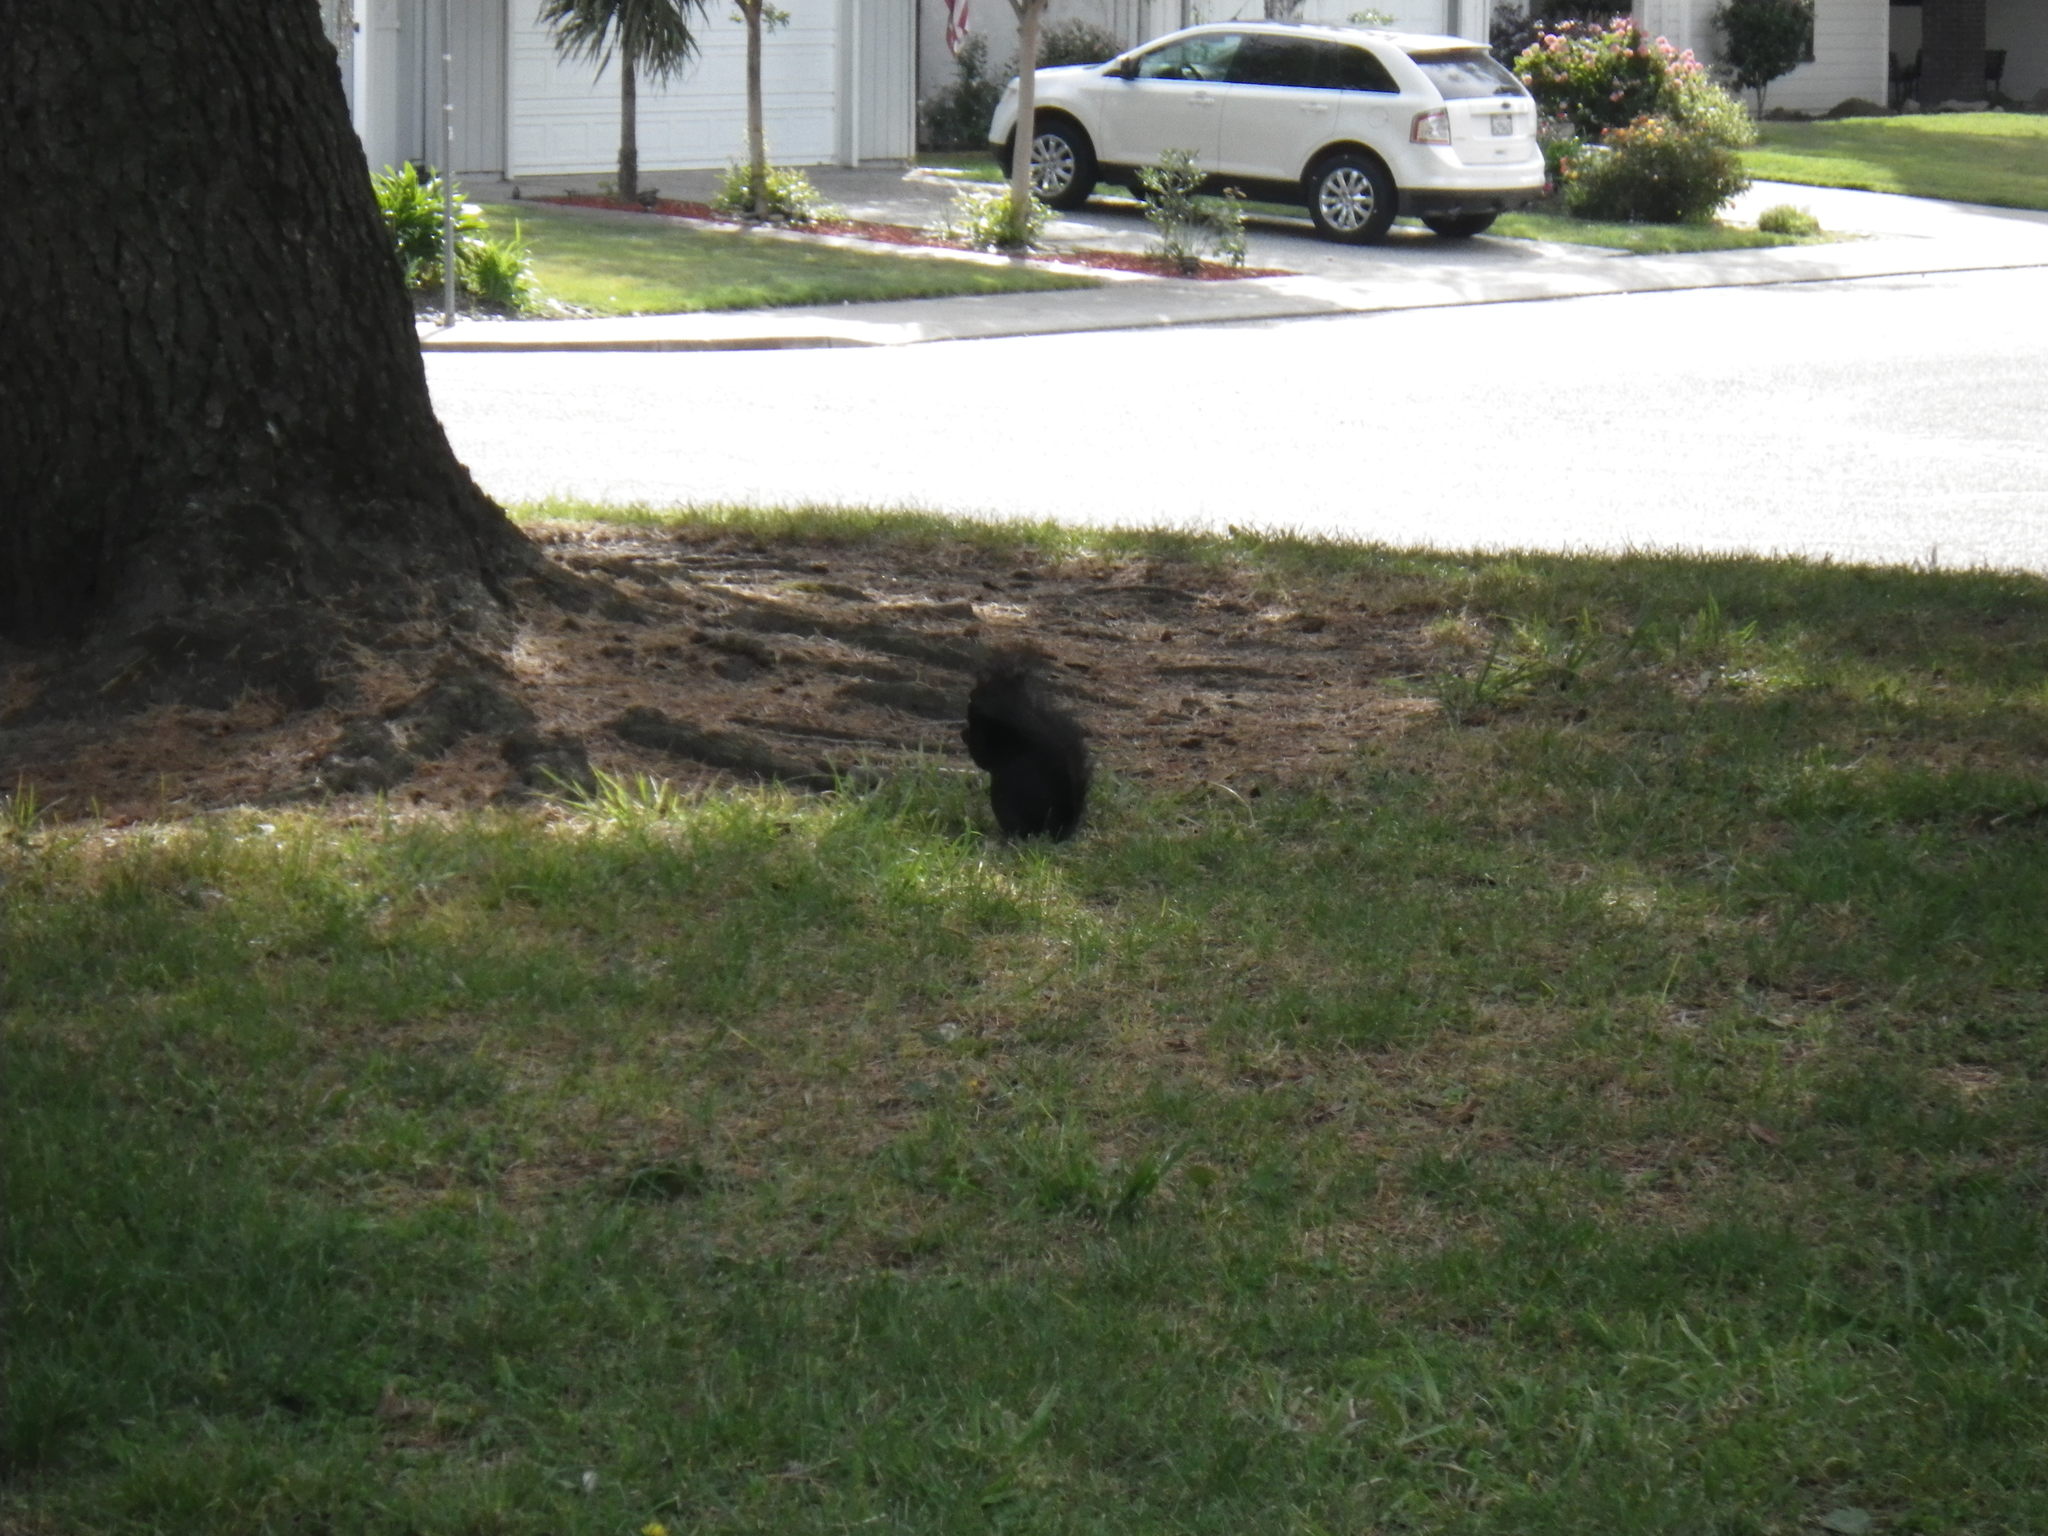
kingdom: Animalia
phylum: Chordata
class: Mammalia
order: Rodentia
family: Sciuridae
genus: Sciurus
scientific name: Sciurus carolinensis
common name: Eastern gray squirrel
